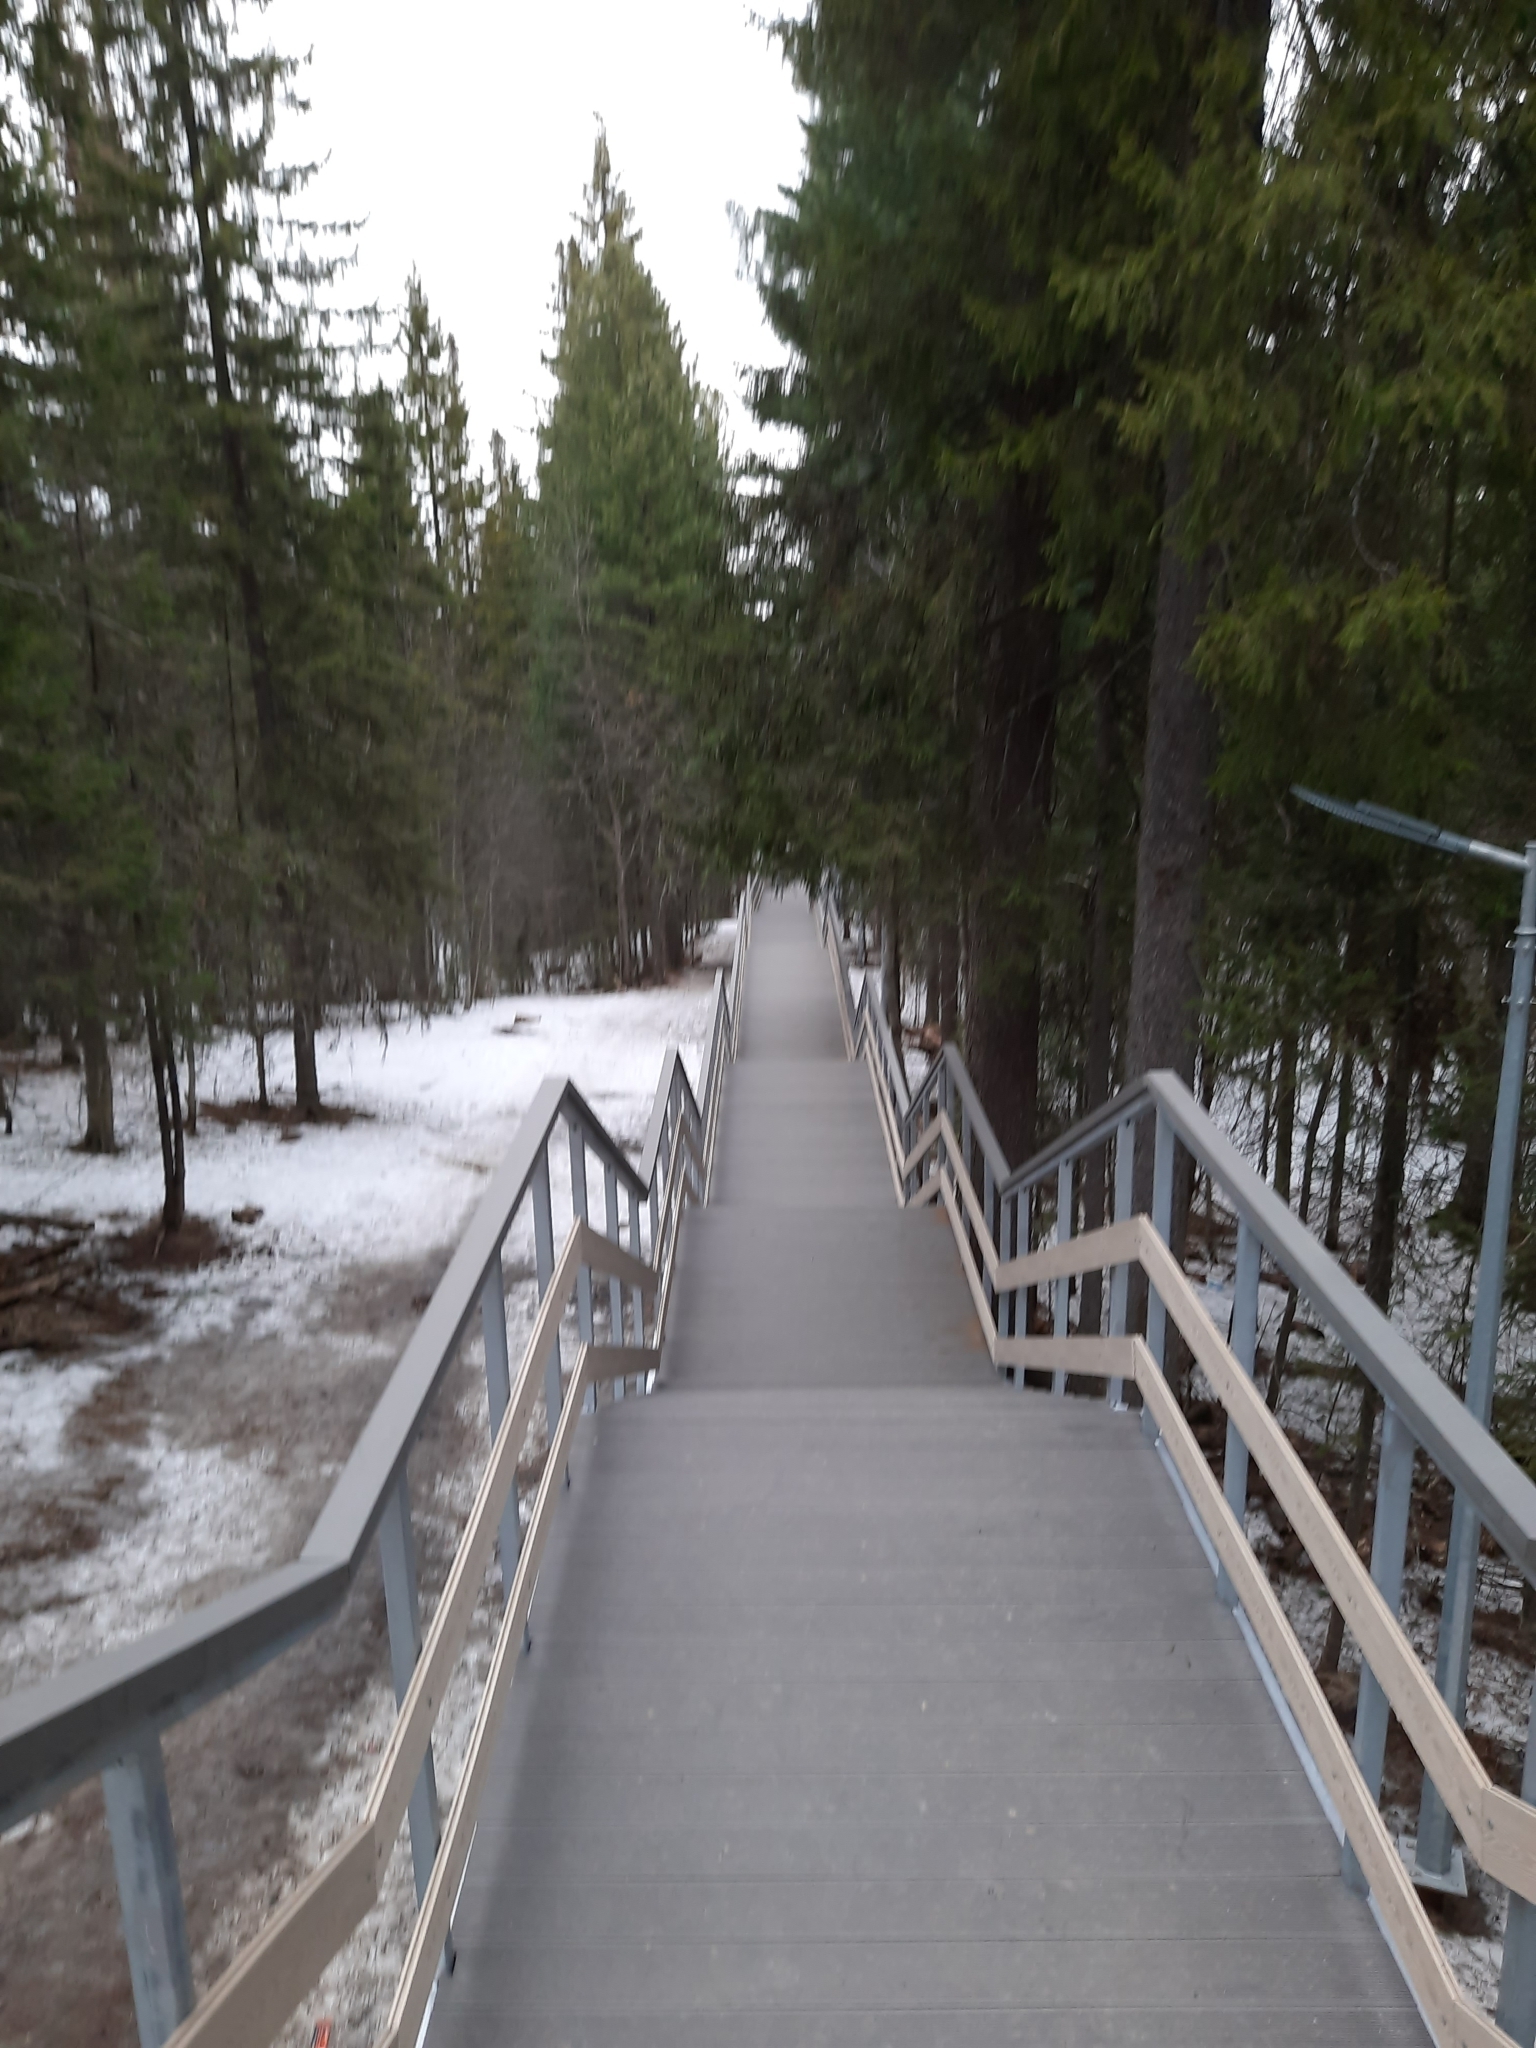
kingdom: Plantae
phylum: Tracheophyta
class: Pinopsida
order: Pinales
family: Pinaceae
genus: Picea
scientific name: Picea obovata
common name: Siberian spruce
